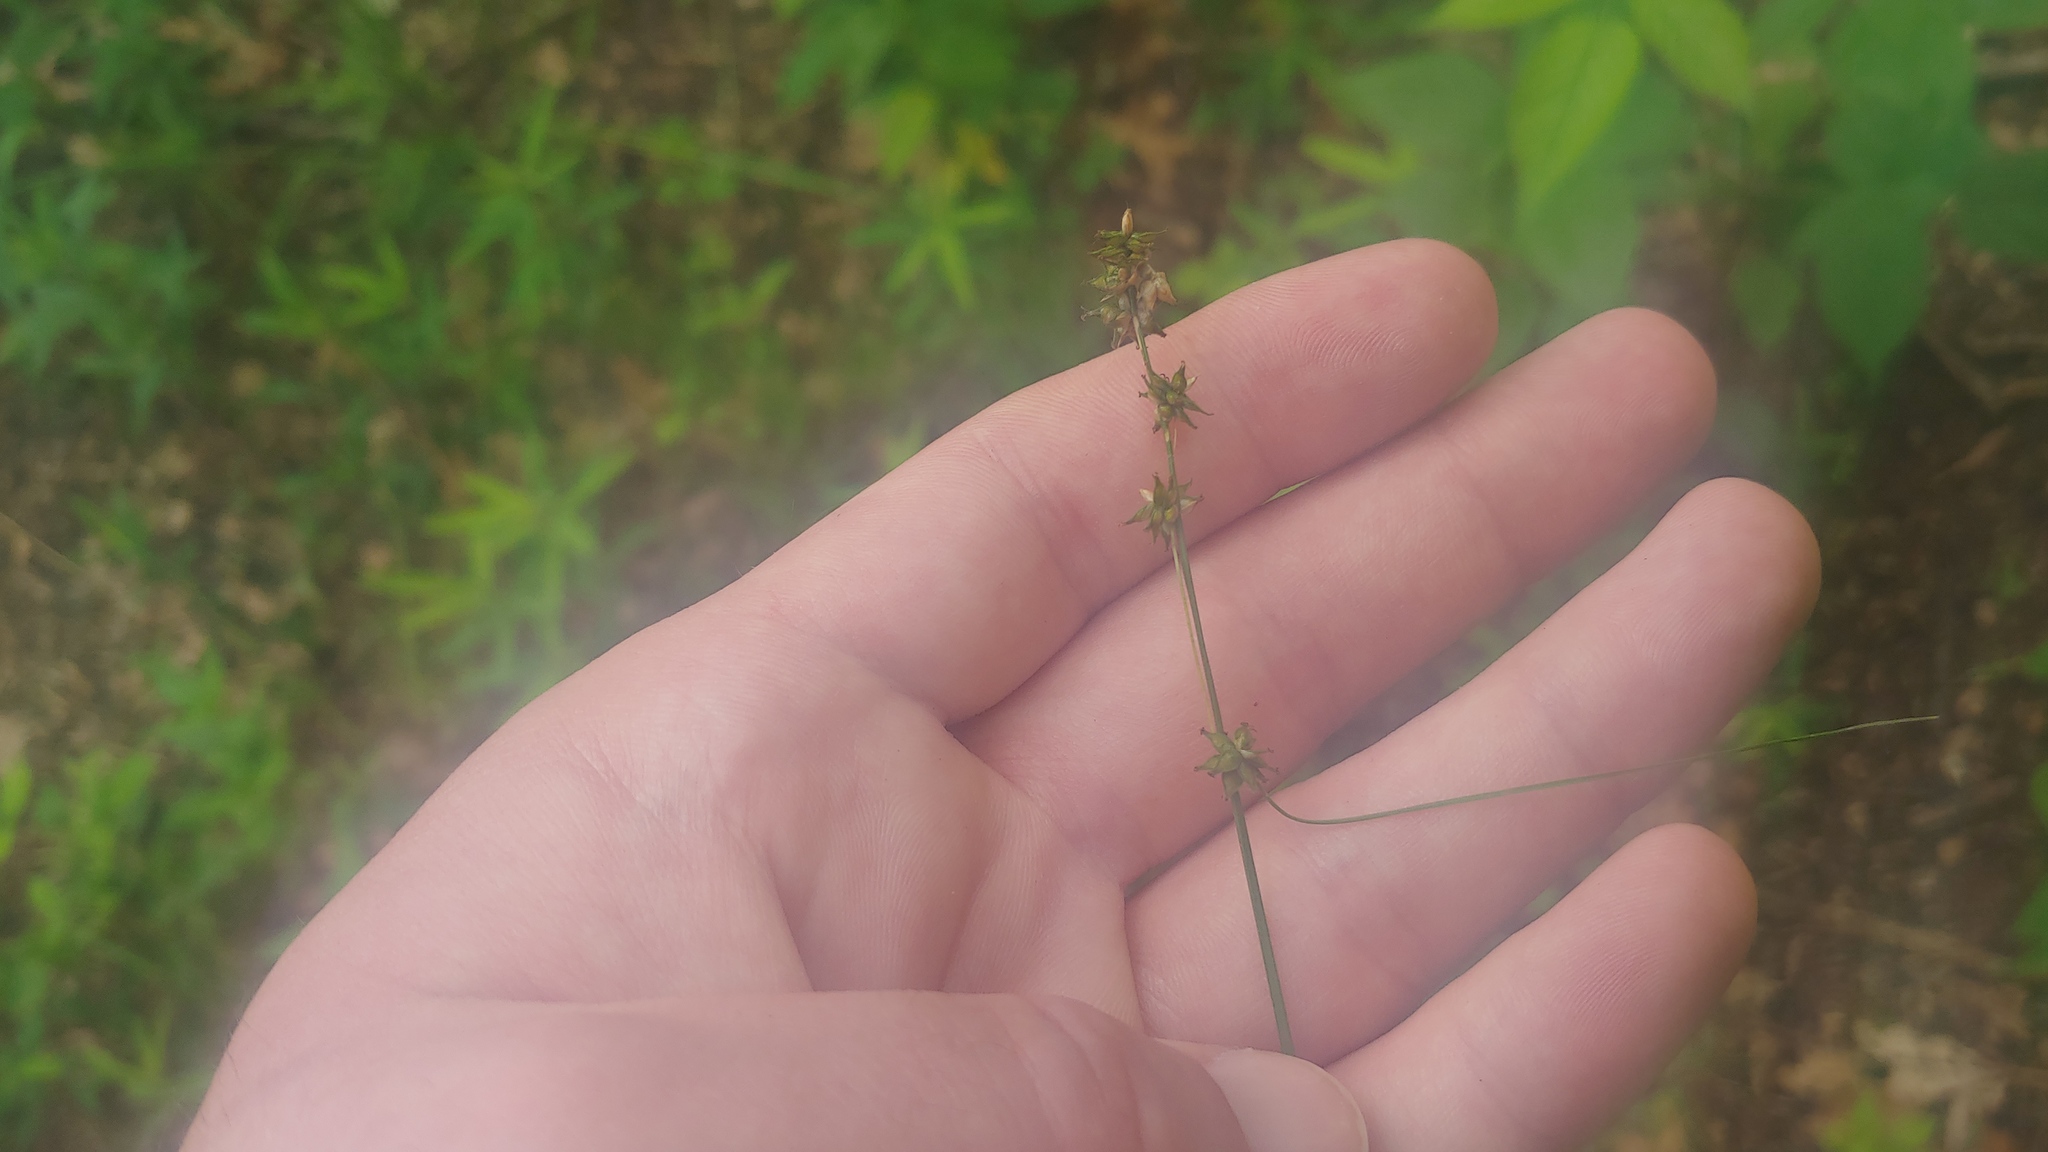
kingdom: Plantae
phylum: Tracheophyta
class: Liliopsida
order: Poales
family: Cyperaceae
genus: Carex
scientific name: Carex rosea
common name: Curly-styled wood sedge
